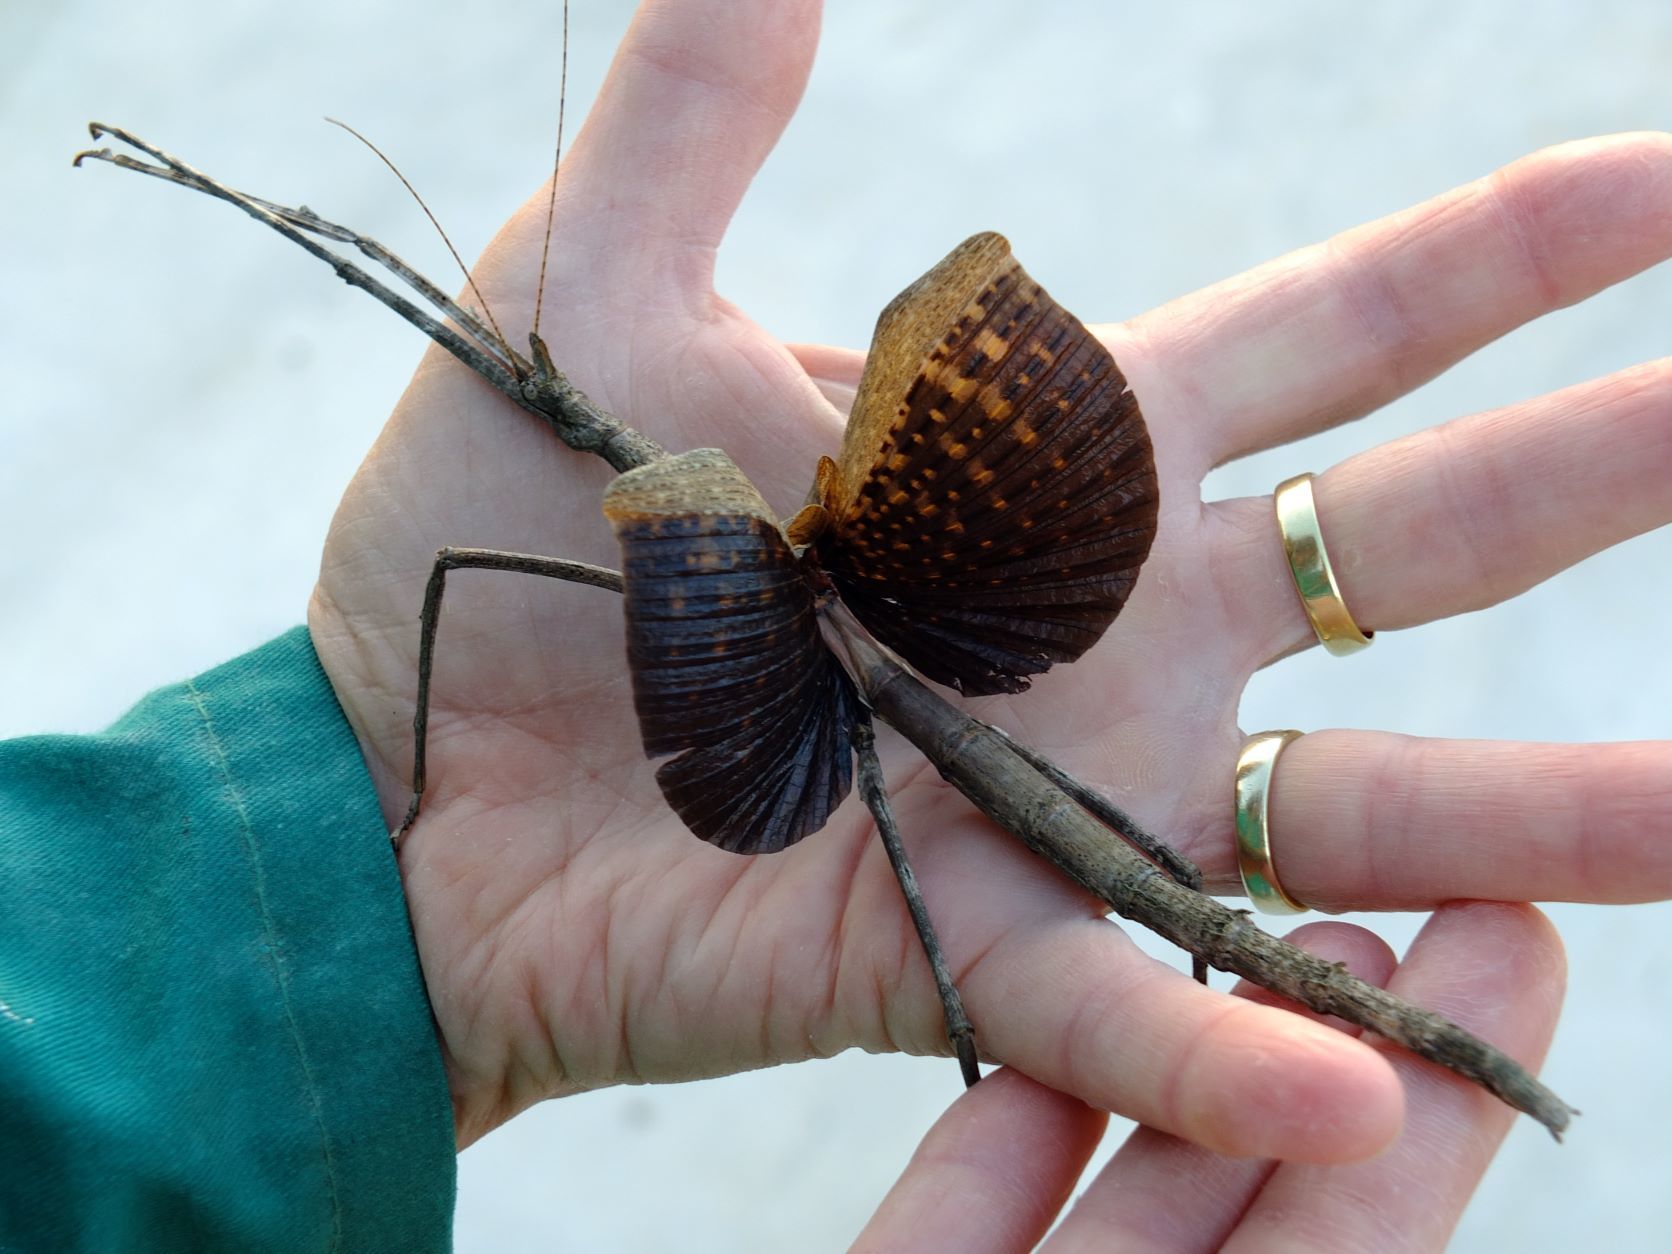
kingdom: Animalia
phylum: Arthropoda
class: Insecta
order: Phasmida
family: Diapheromeridae
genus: Bactrododema
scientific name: Bactrododema haworthii
